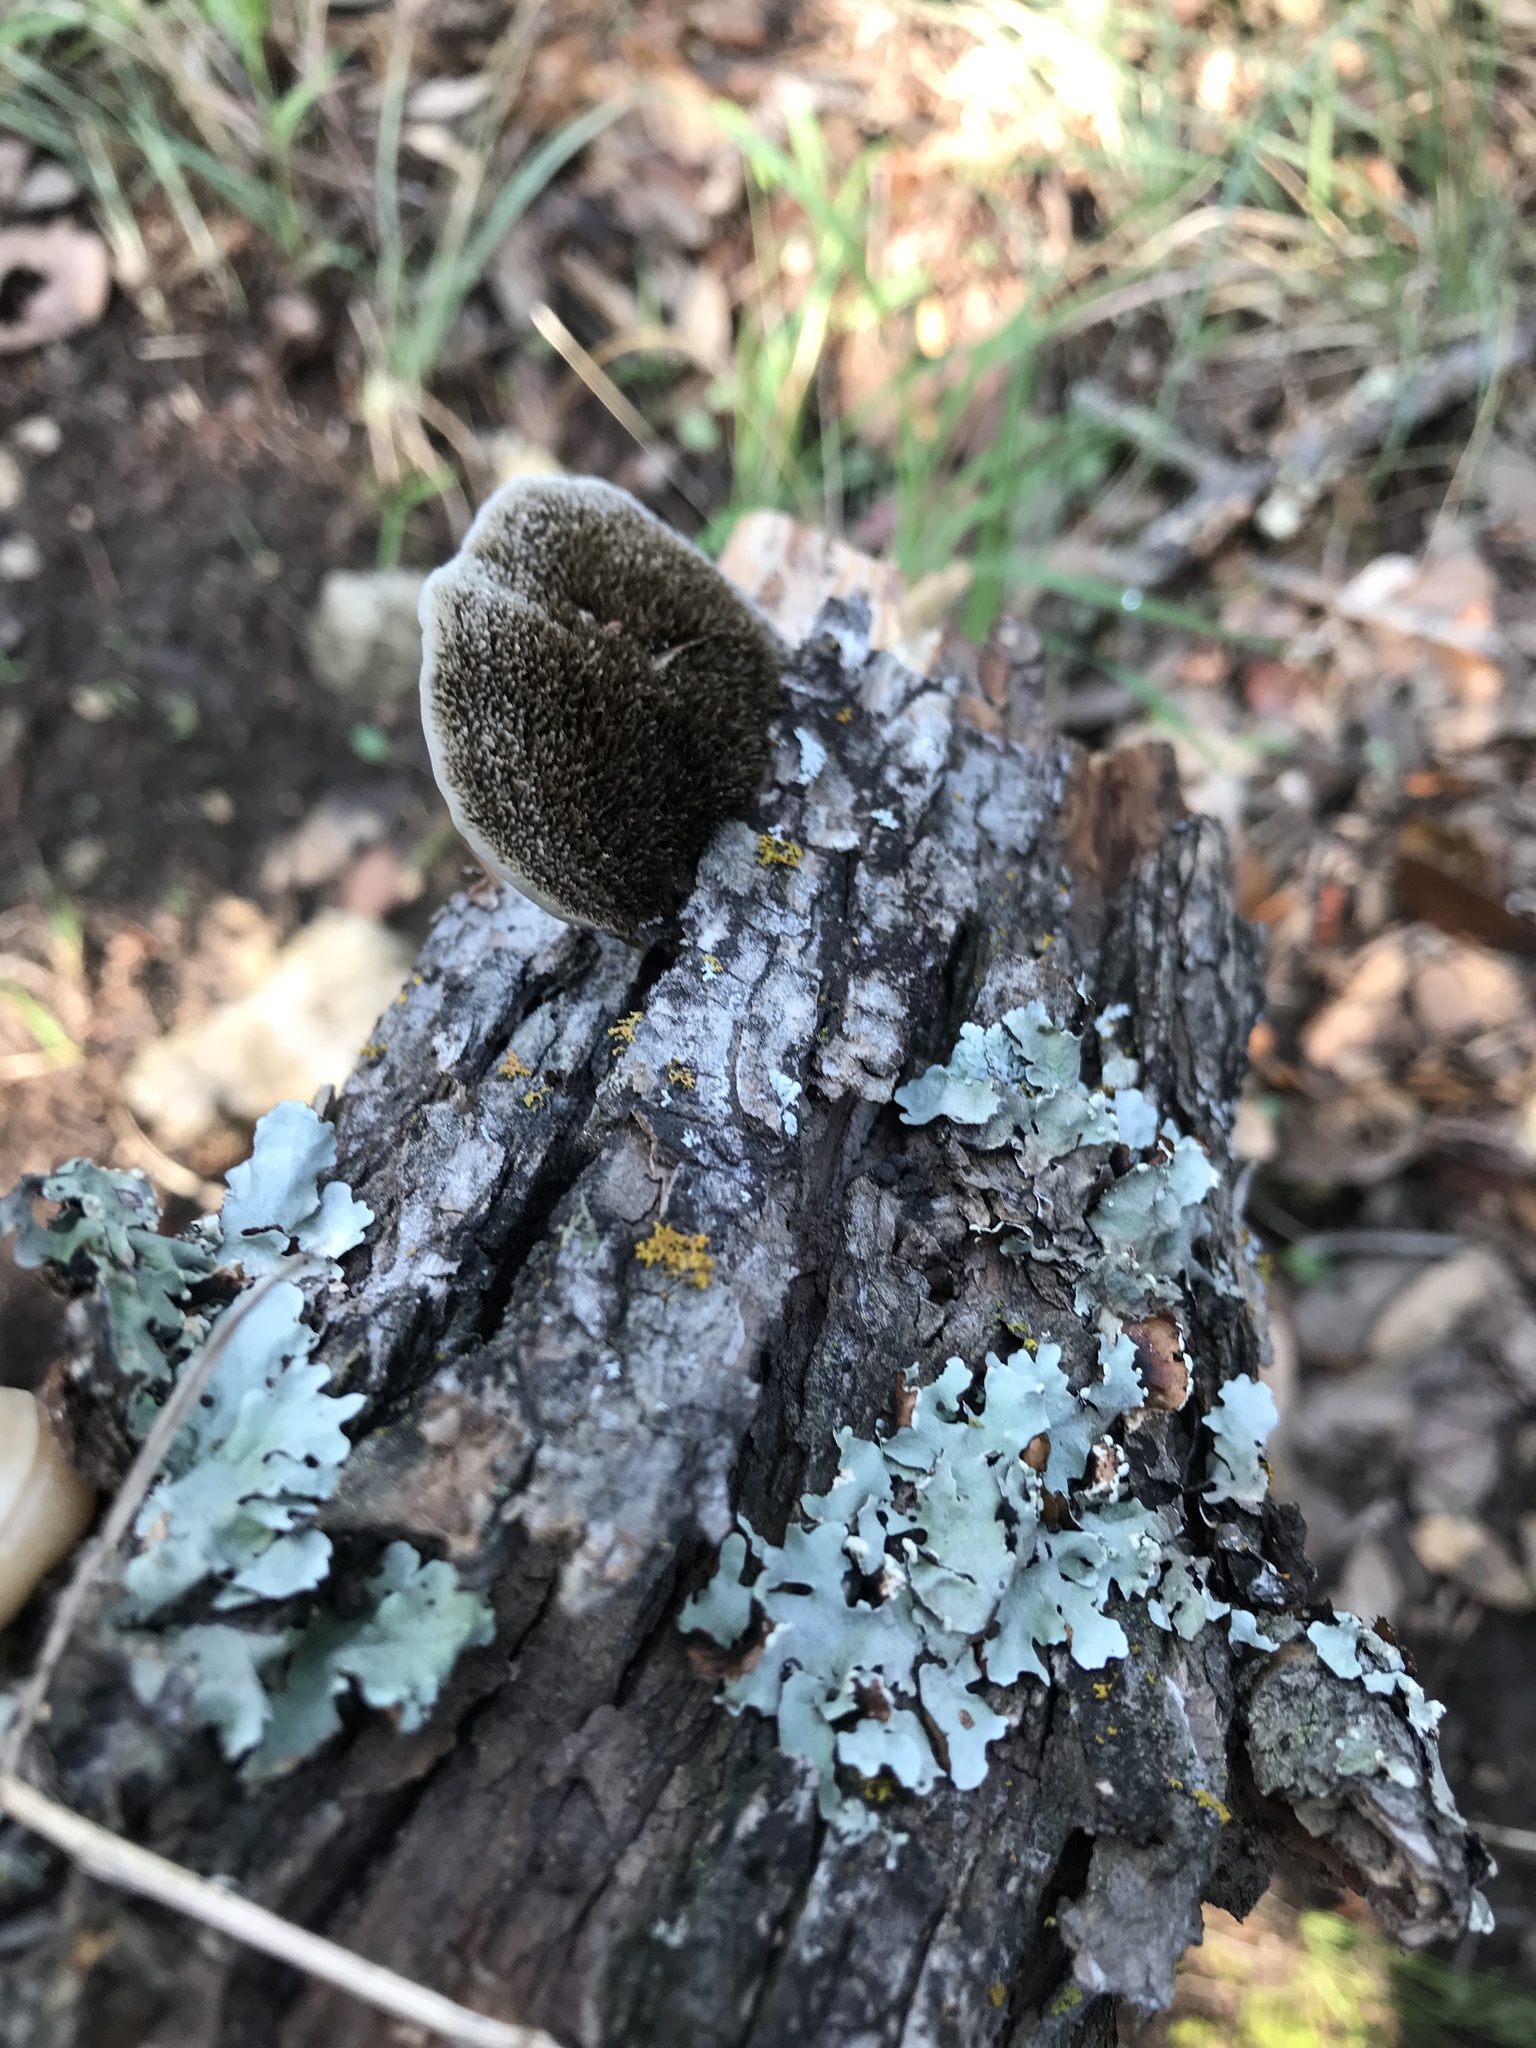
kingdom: Fungi
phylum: Basidiomycota
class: Agaricomycetes
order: Polyporales
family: Cerrenaceae
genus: Cerrena
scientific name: Cerrena hydnoides
